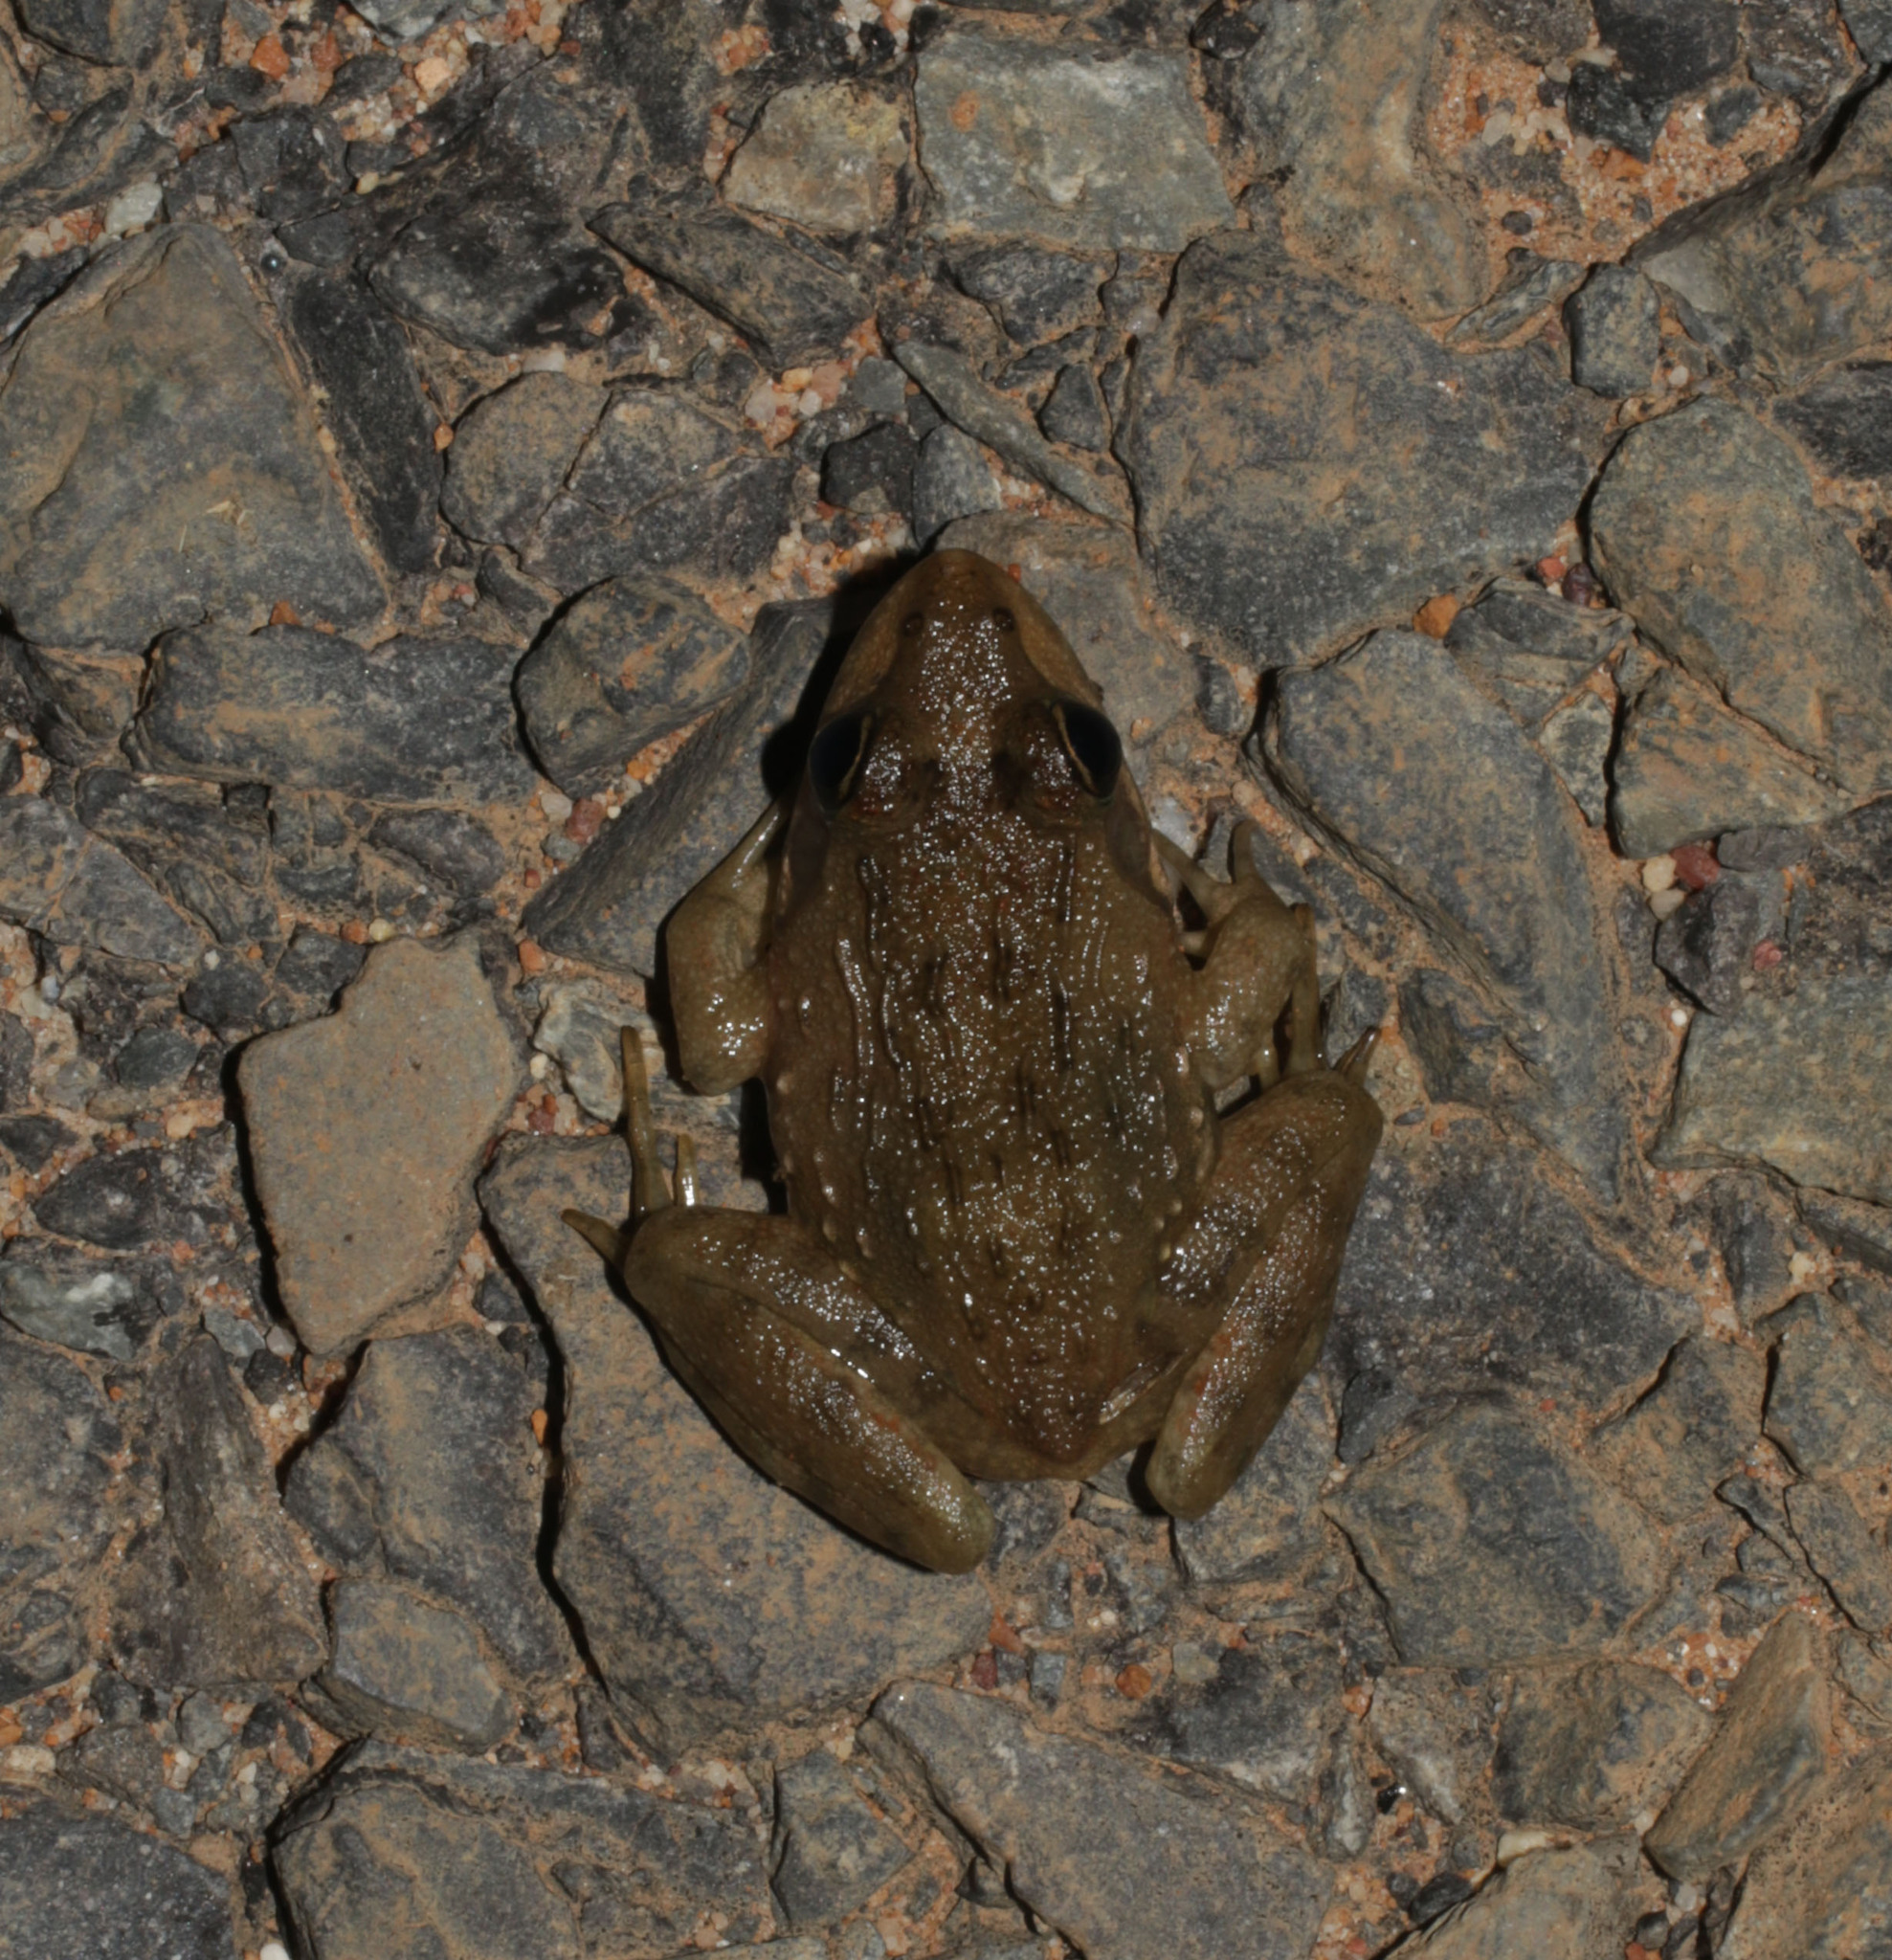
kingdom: Animalia
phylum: Chordata
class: Amphibia
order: Anura
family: Pyxicephalidae
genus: Amietia
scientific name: Amietia fuscigula
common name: Cape rana
